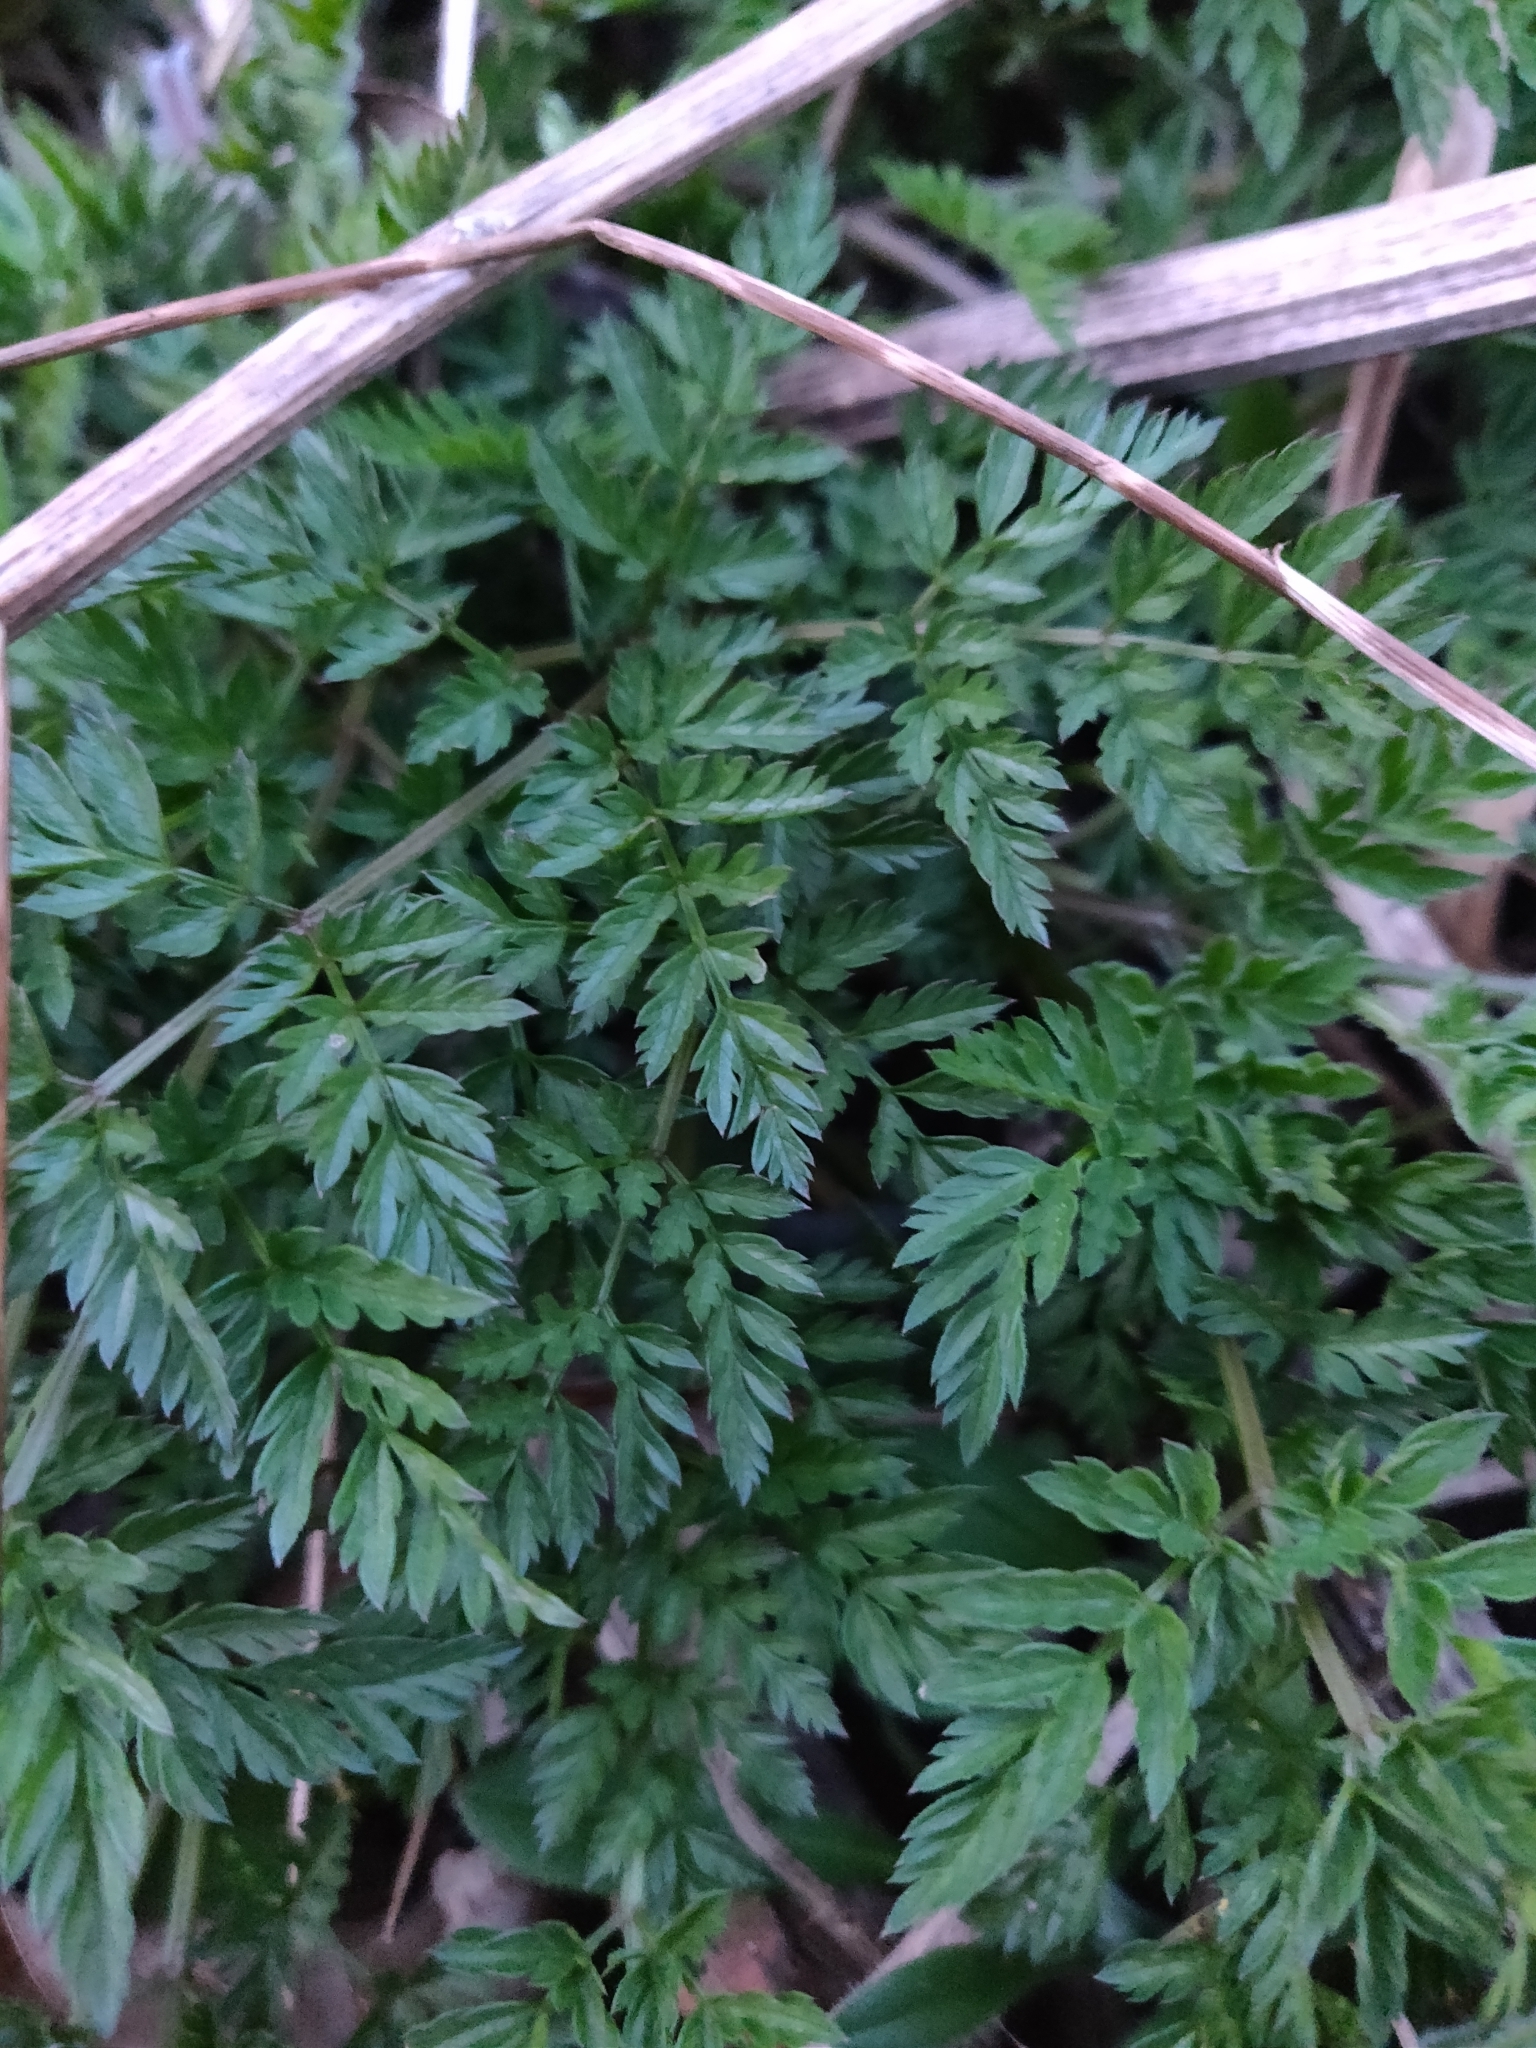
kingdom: Plantae
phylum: Tracheophyta
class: Magnoliopsida
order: Apiales
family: Apiaceae
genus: Anthriscus
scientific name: Anthriscus sylvestris
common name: Cow parsley
